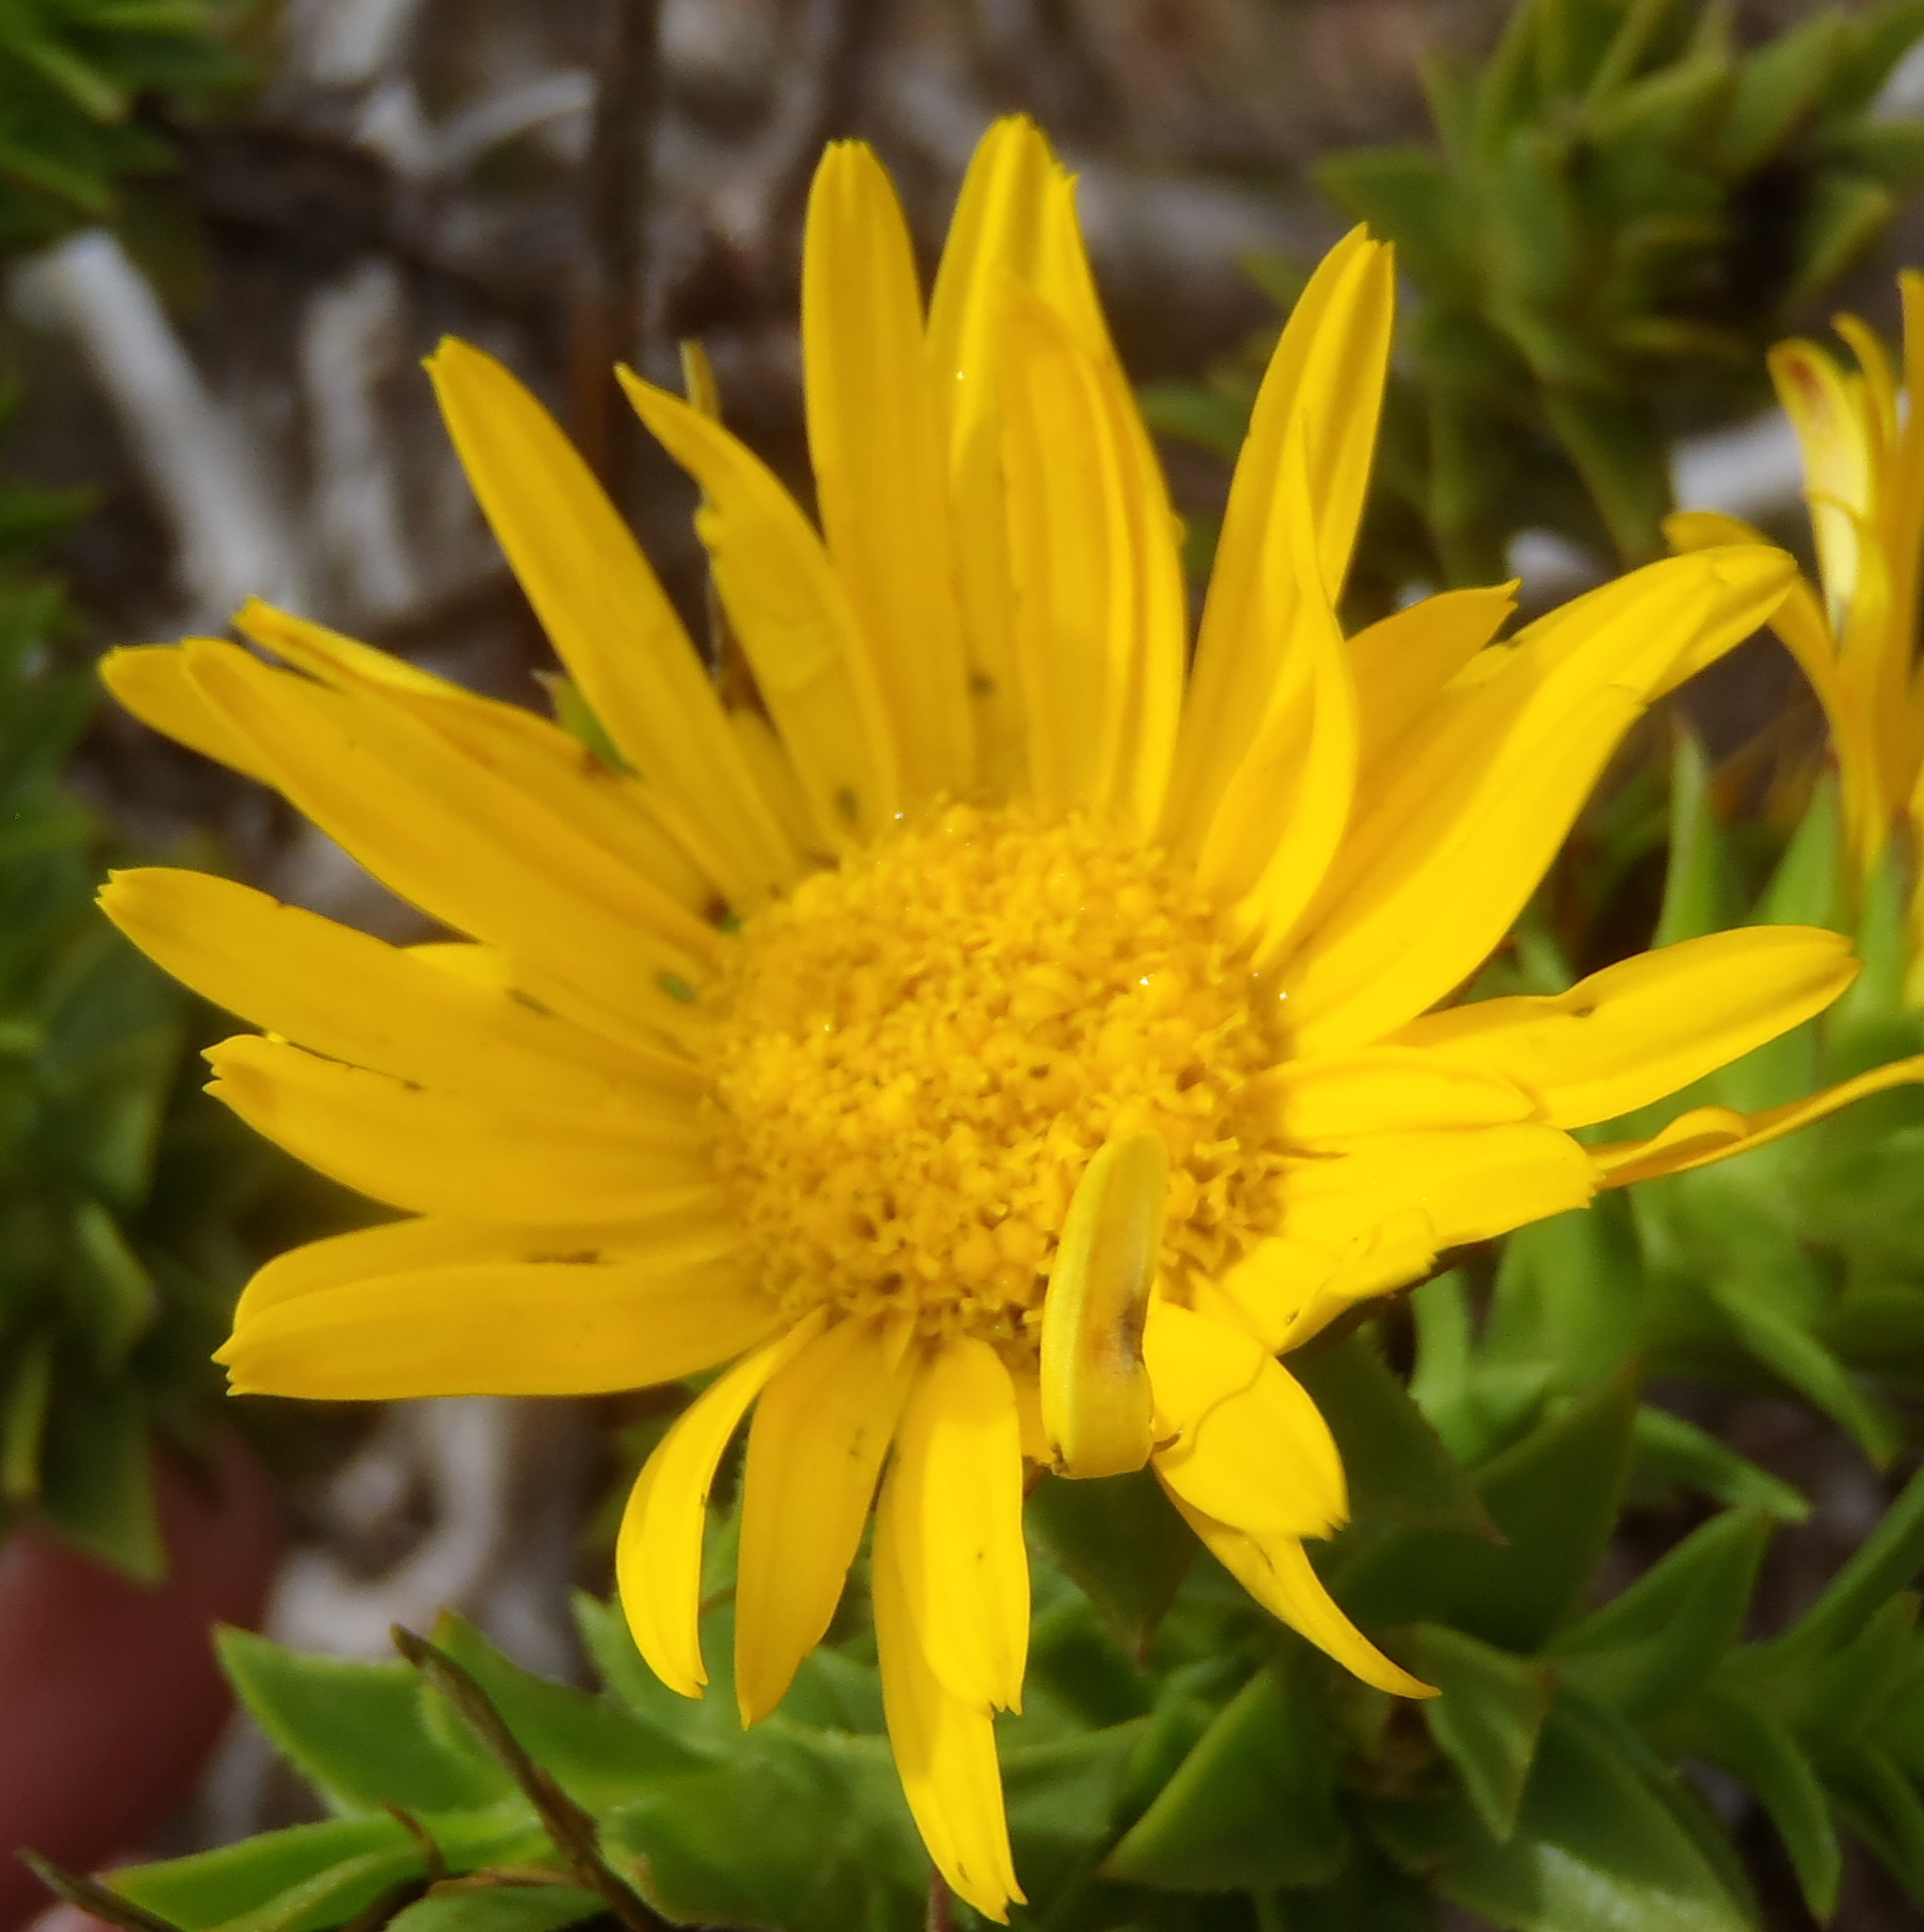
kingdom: Plantae
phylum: Tracheophyta
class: Magnoliopsida
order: Asterales
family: Asteraceae
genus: Oedera
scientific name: Oedera capensis
